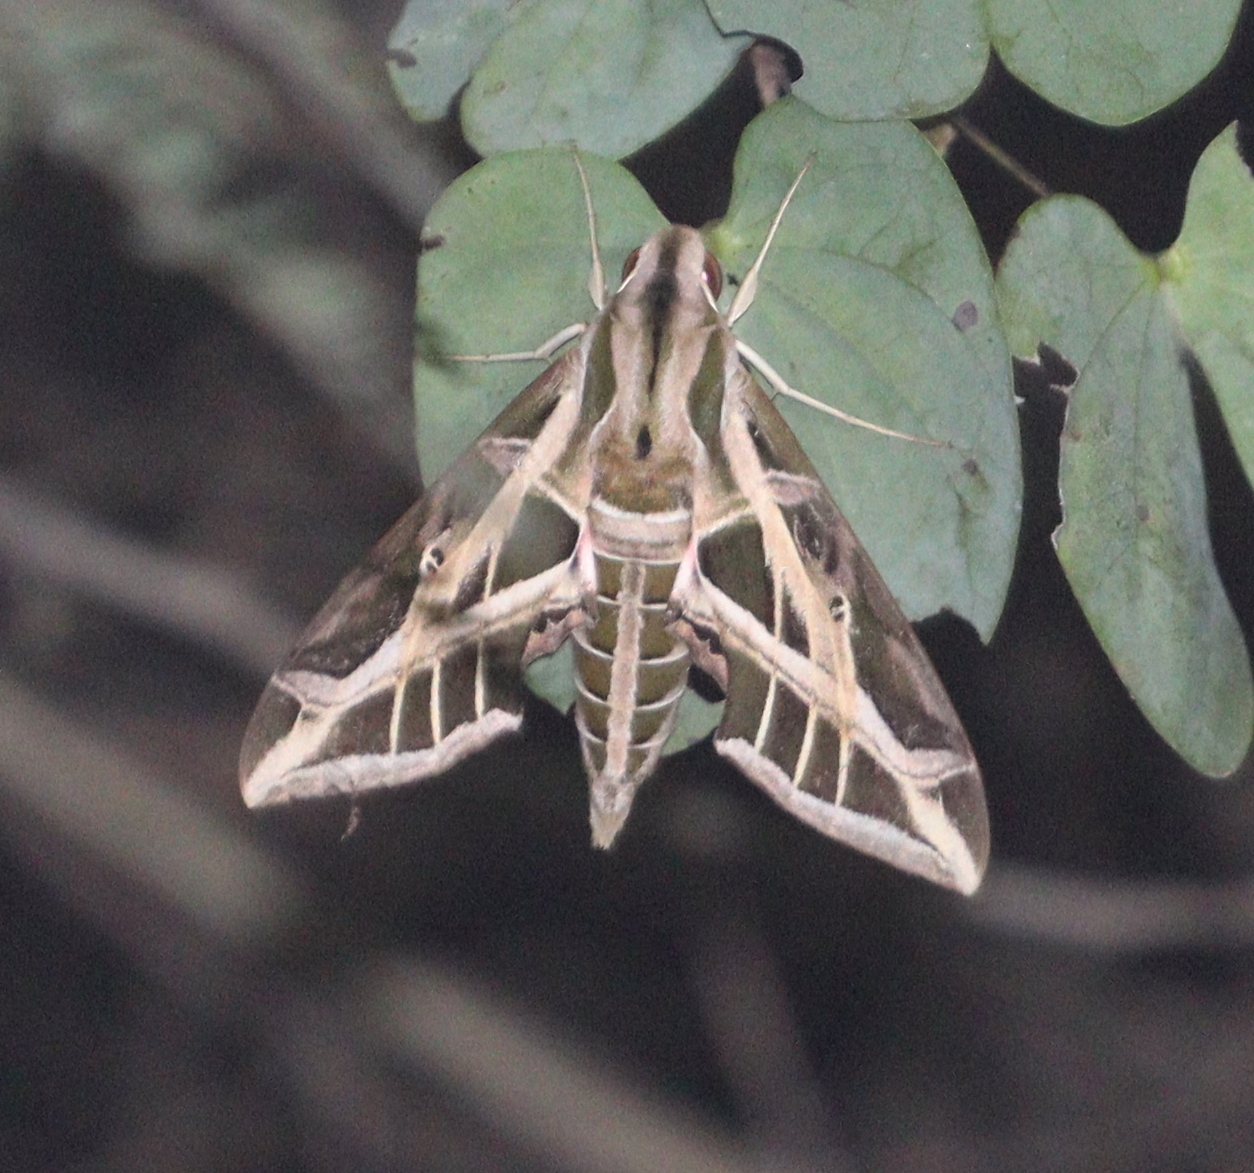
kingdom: Animalia
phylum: Arthropoda
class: Insecta
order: Lepidoptera
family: Sphingidae
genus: Eumorpha
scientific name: Eumorpha vitis
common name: Vine sphinx
